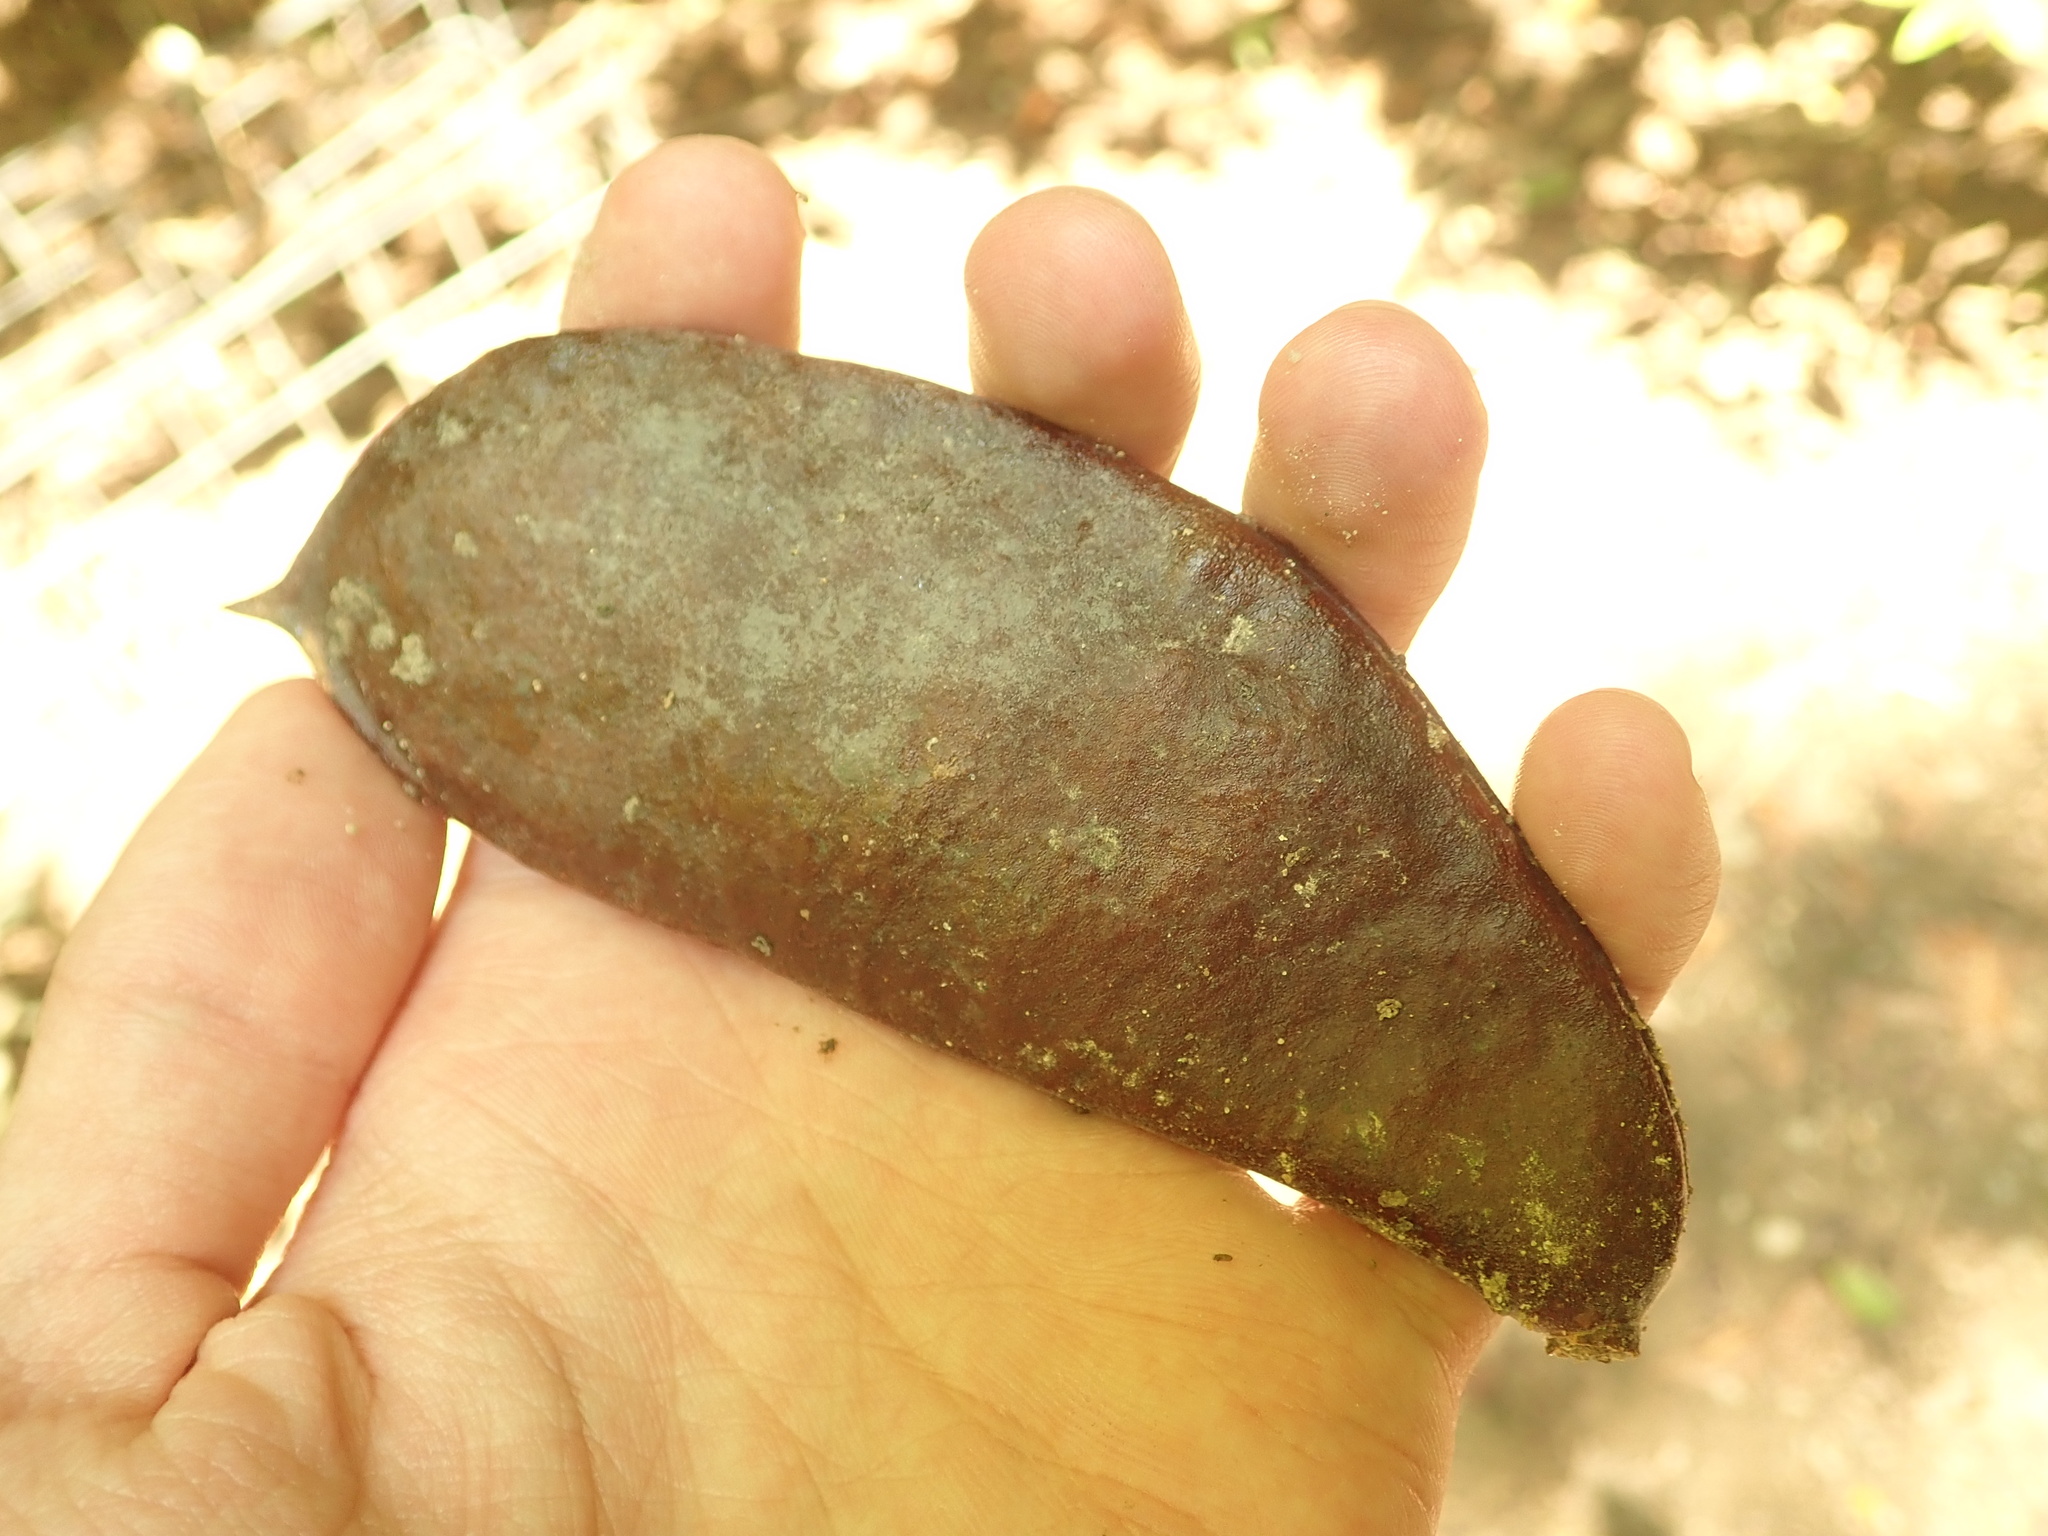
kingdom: Plantae
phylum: Tracheophyta
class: Magnoliopsida
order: Fabales
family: Fabaceae
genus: Gymnocladus
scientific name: Gymnocladus dioicus
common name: Kentucky coffee-tree
